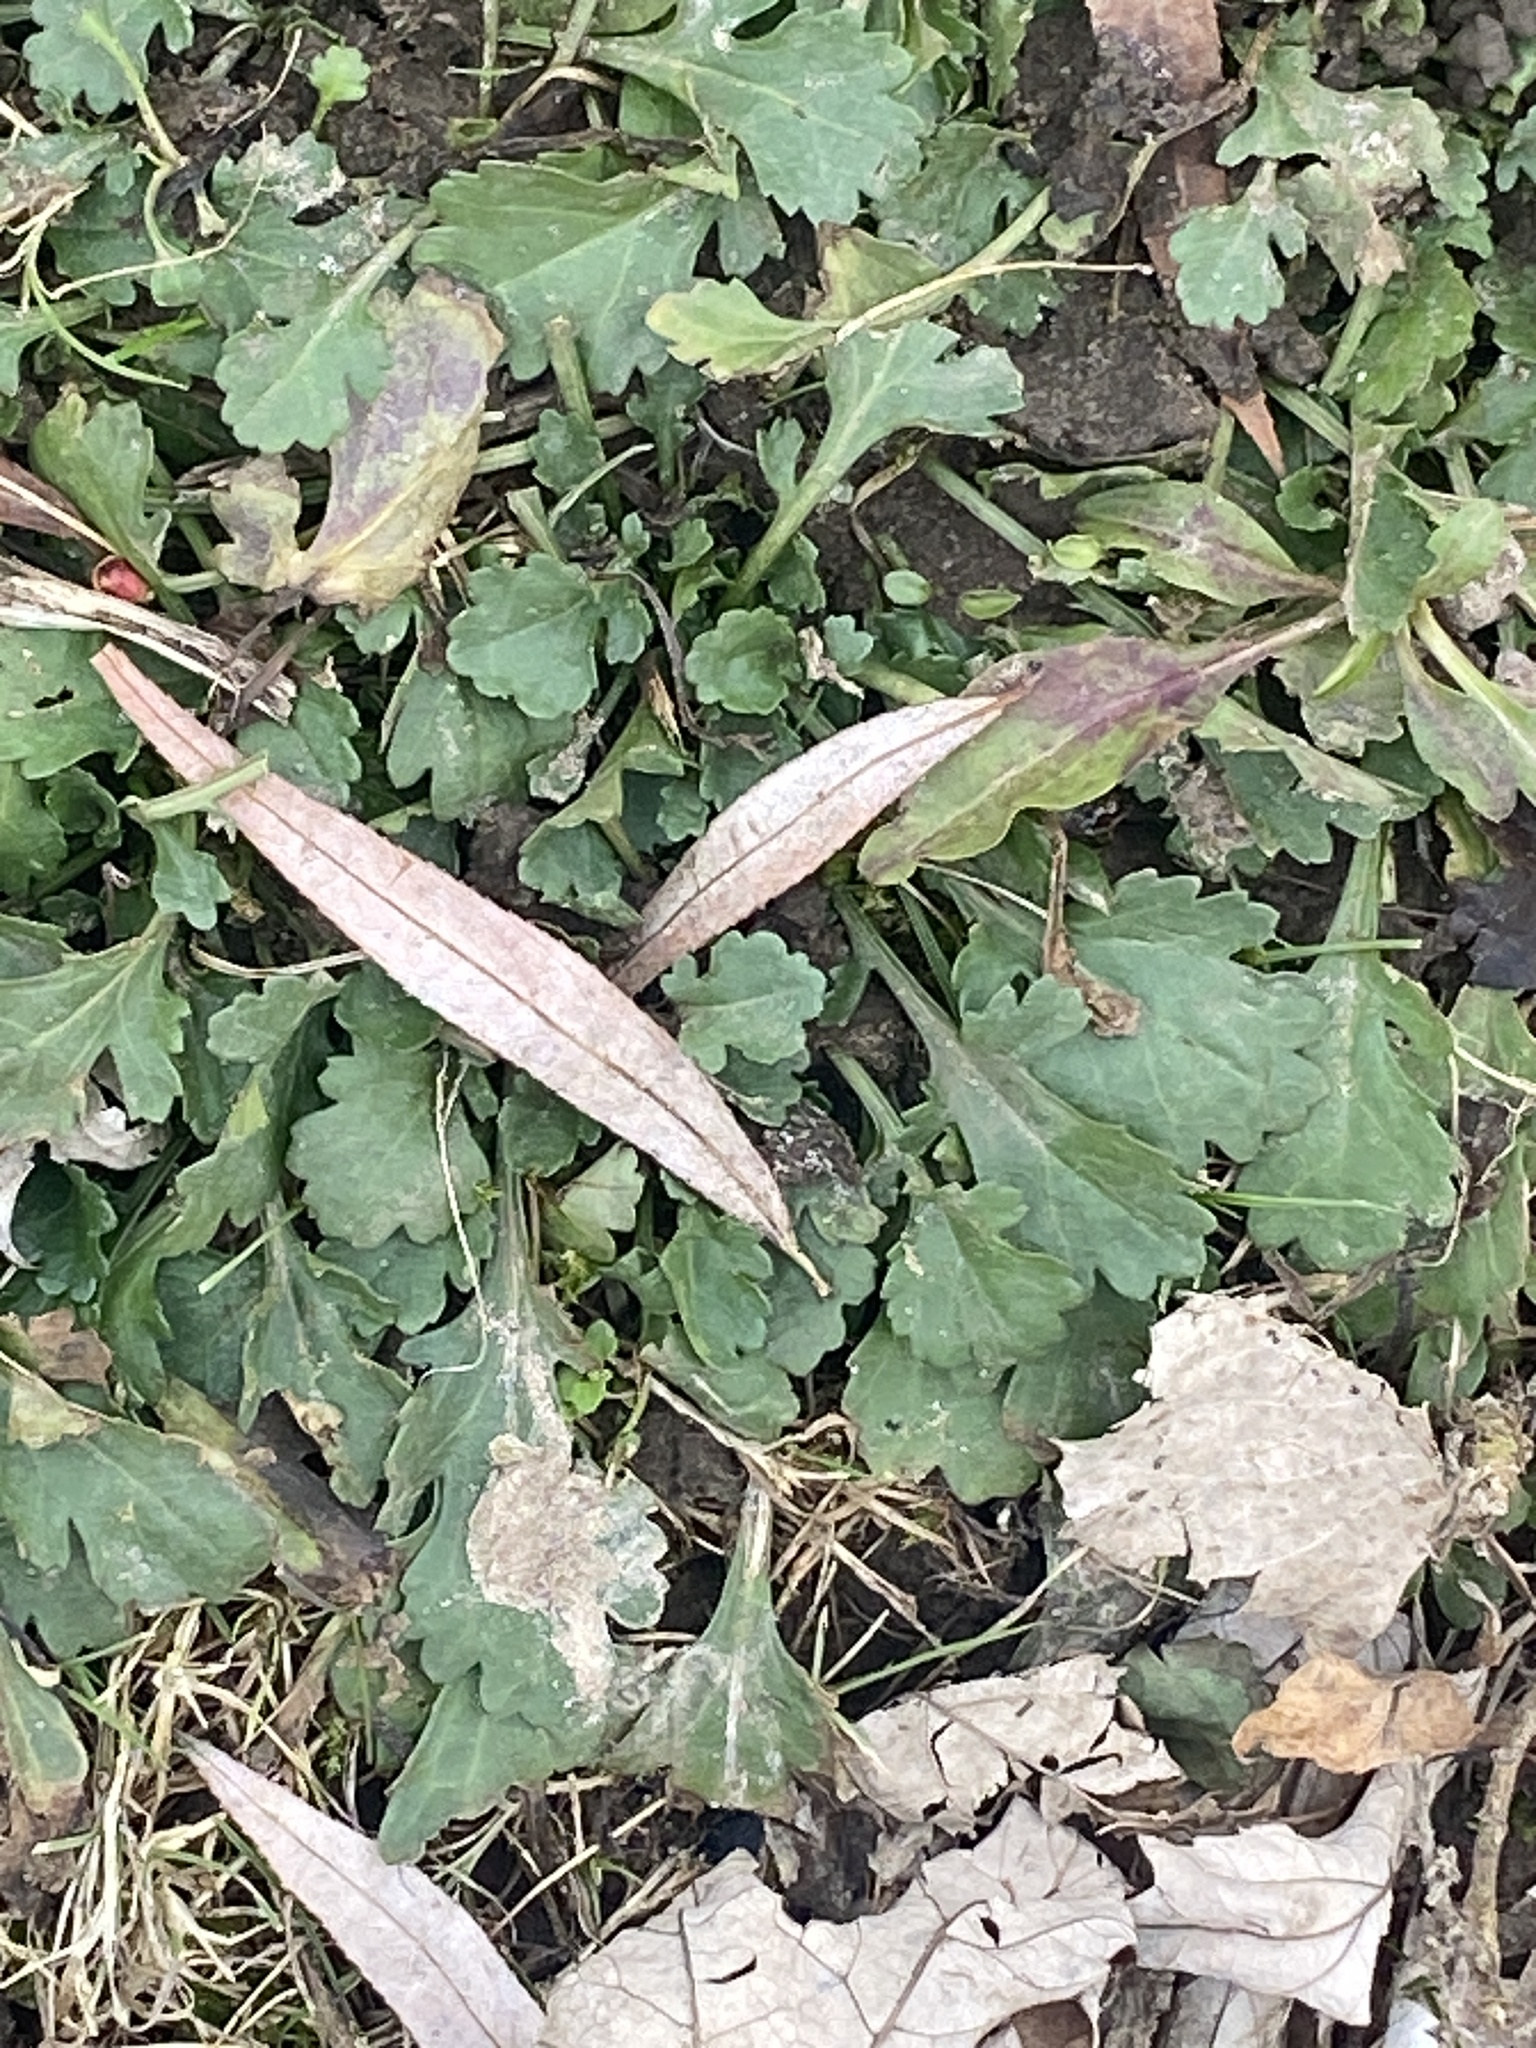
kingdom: Plantae
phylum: Tracheophyta
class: Magnoliopsida
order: Asterales
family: Asteraceae
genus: Leucanthemum
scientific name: Leucanthemum vulgare
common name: Oxeye daisy
